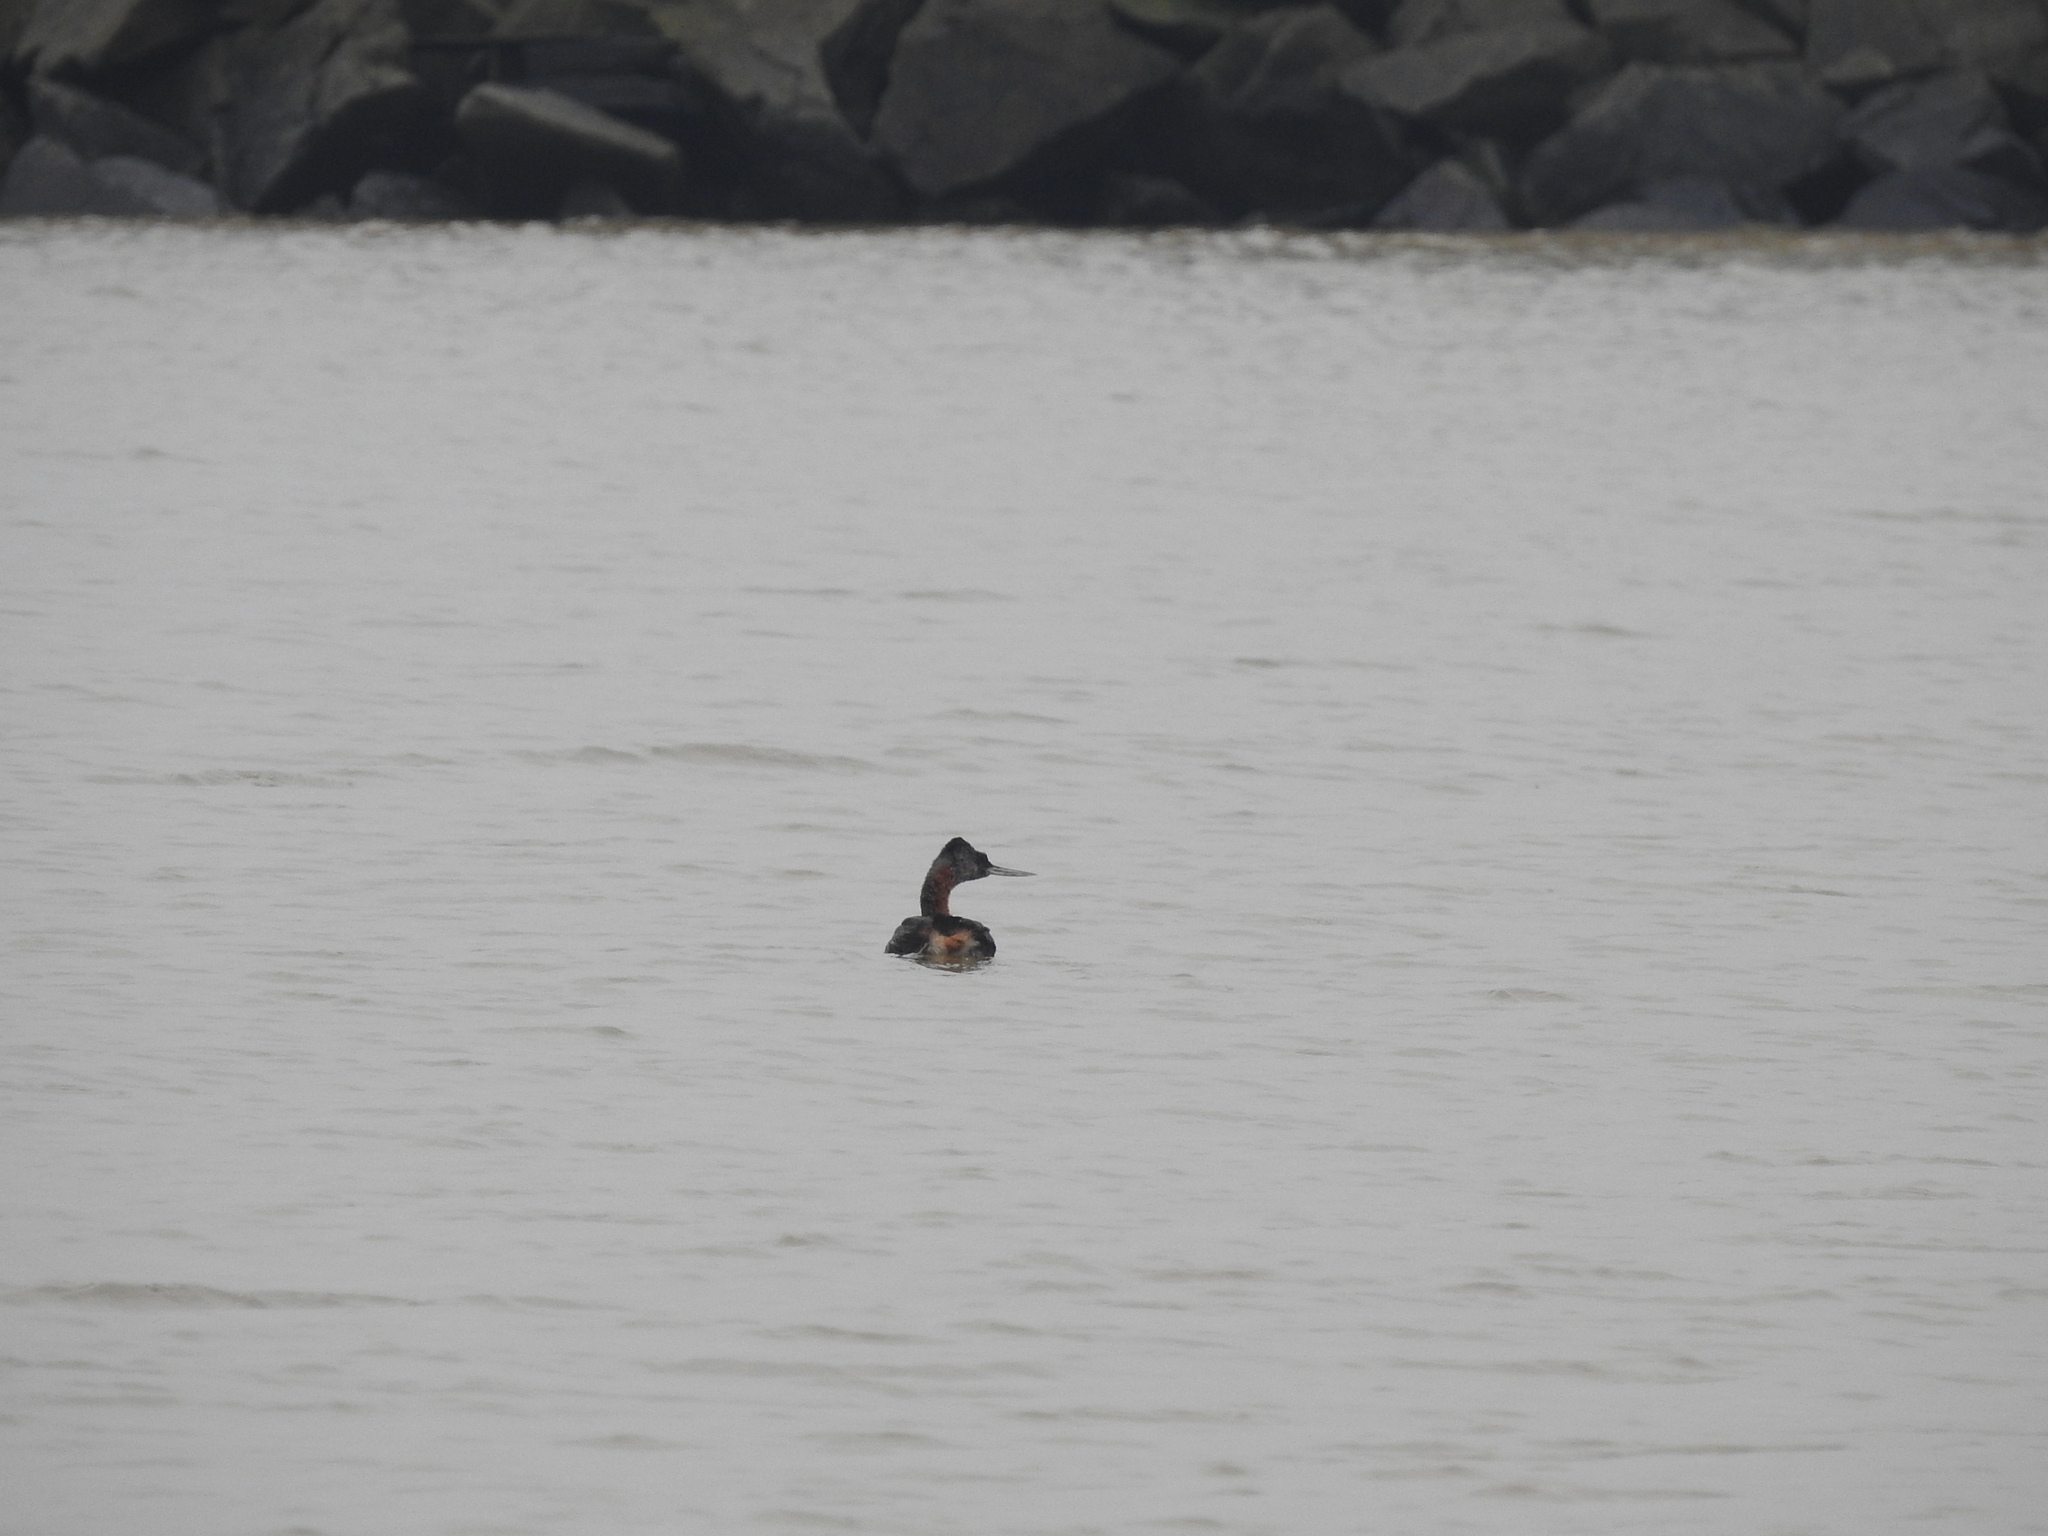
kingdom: Animalia
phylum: Chordata
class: Aves
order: Podicipediformes
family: Podicipedidae
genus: Podiceps
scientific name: Podiceps major
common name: Great grebe
